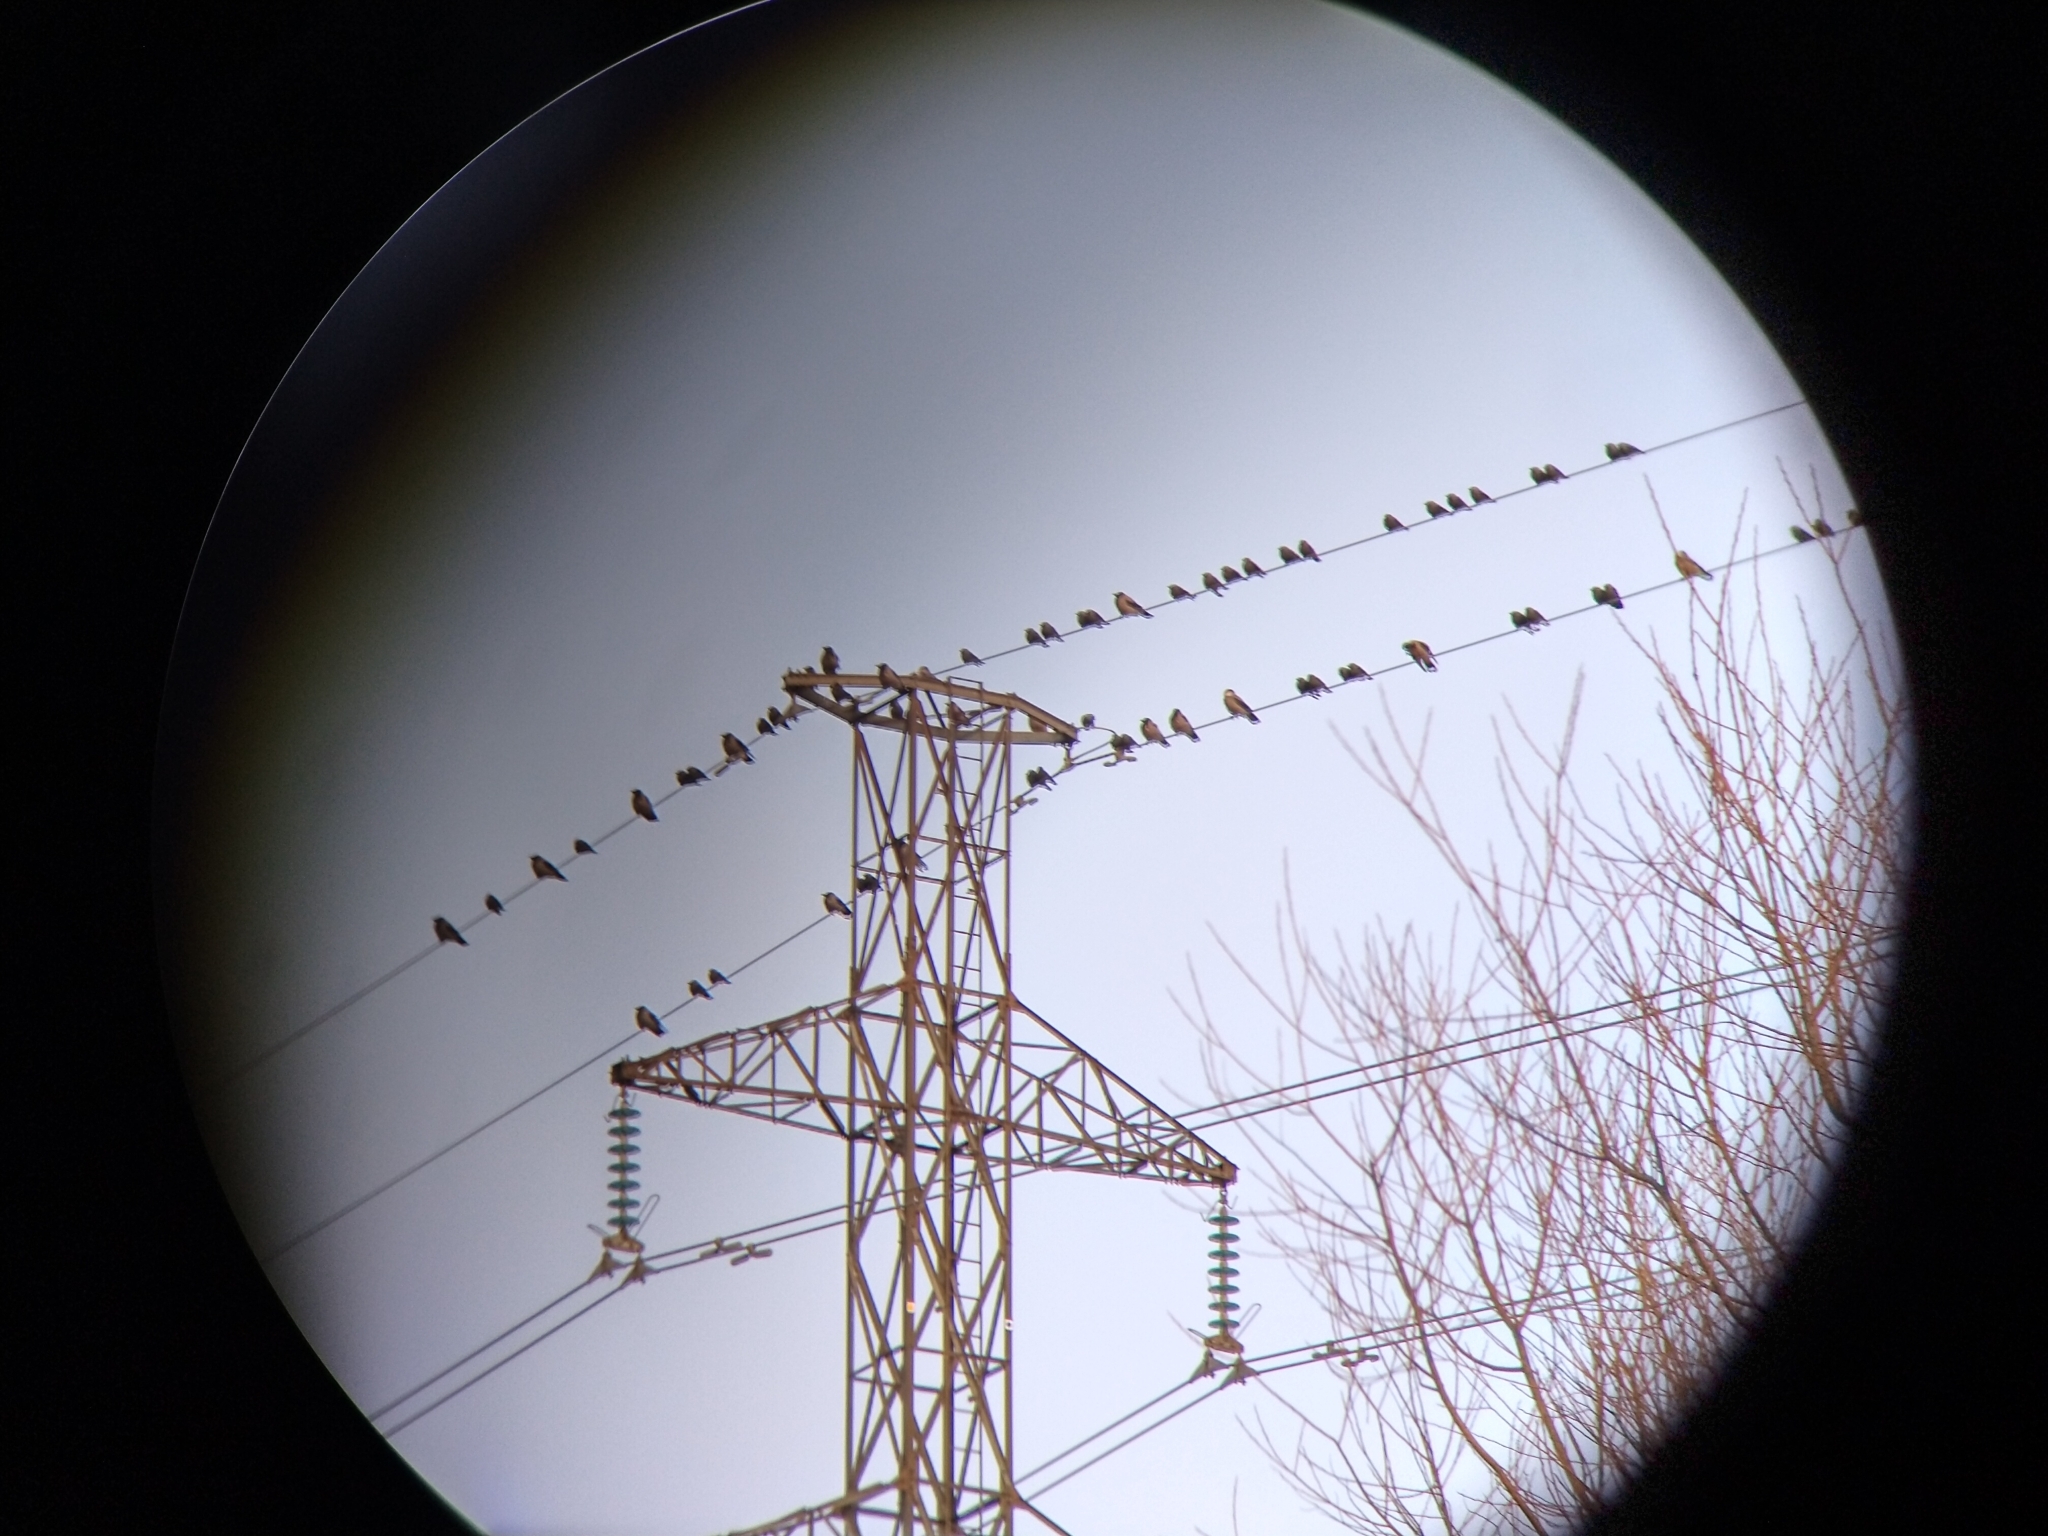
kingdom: Animalia
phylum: Chordata
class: Aves
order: Passeriformes
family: Corvidae
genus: Corvus
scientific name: Corvus cornix
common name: Hooded crow
